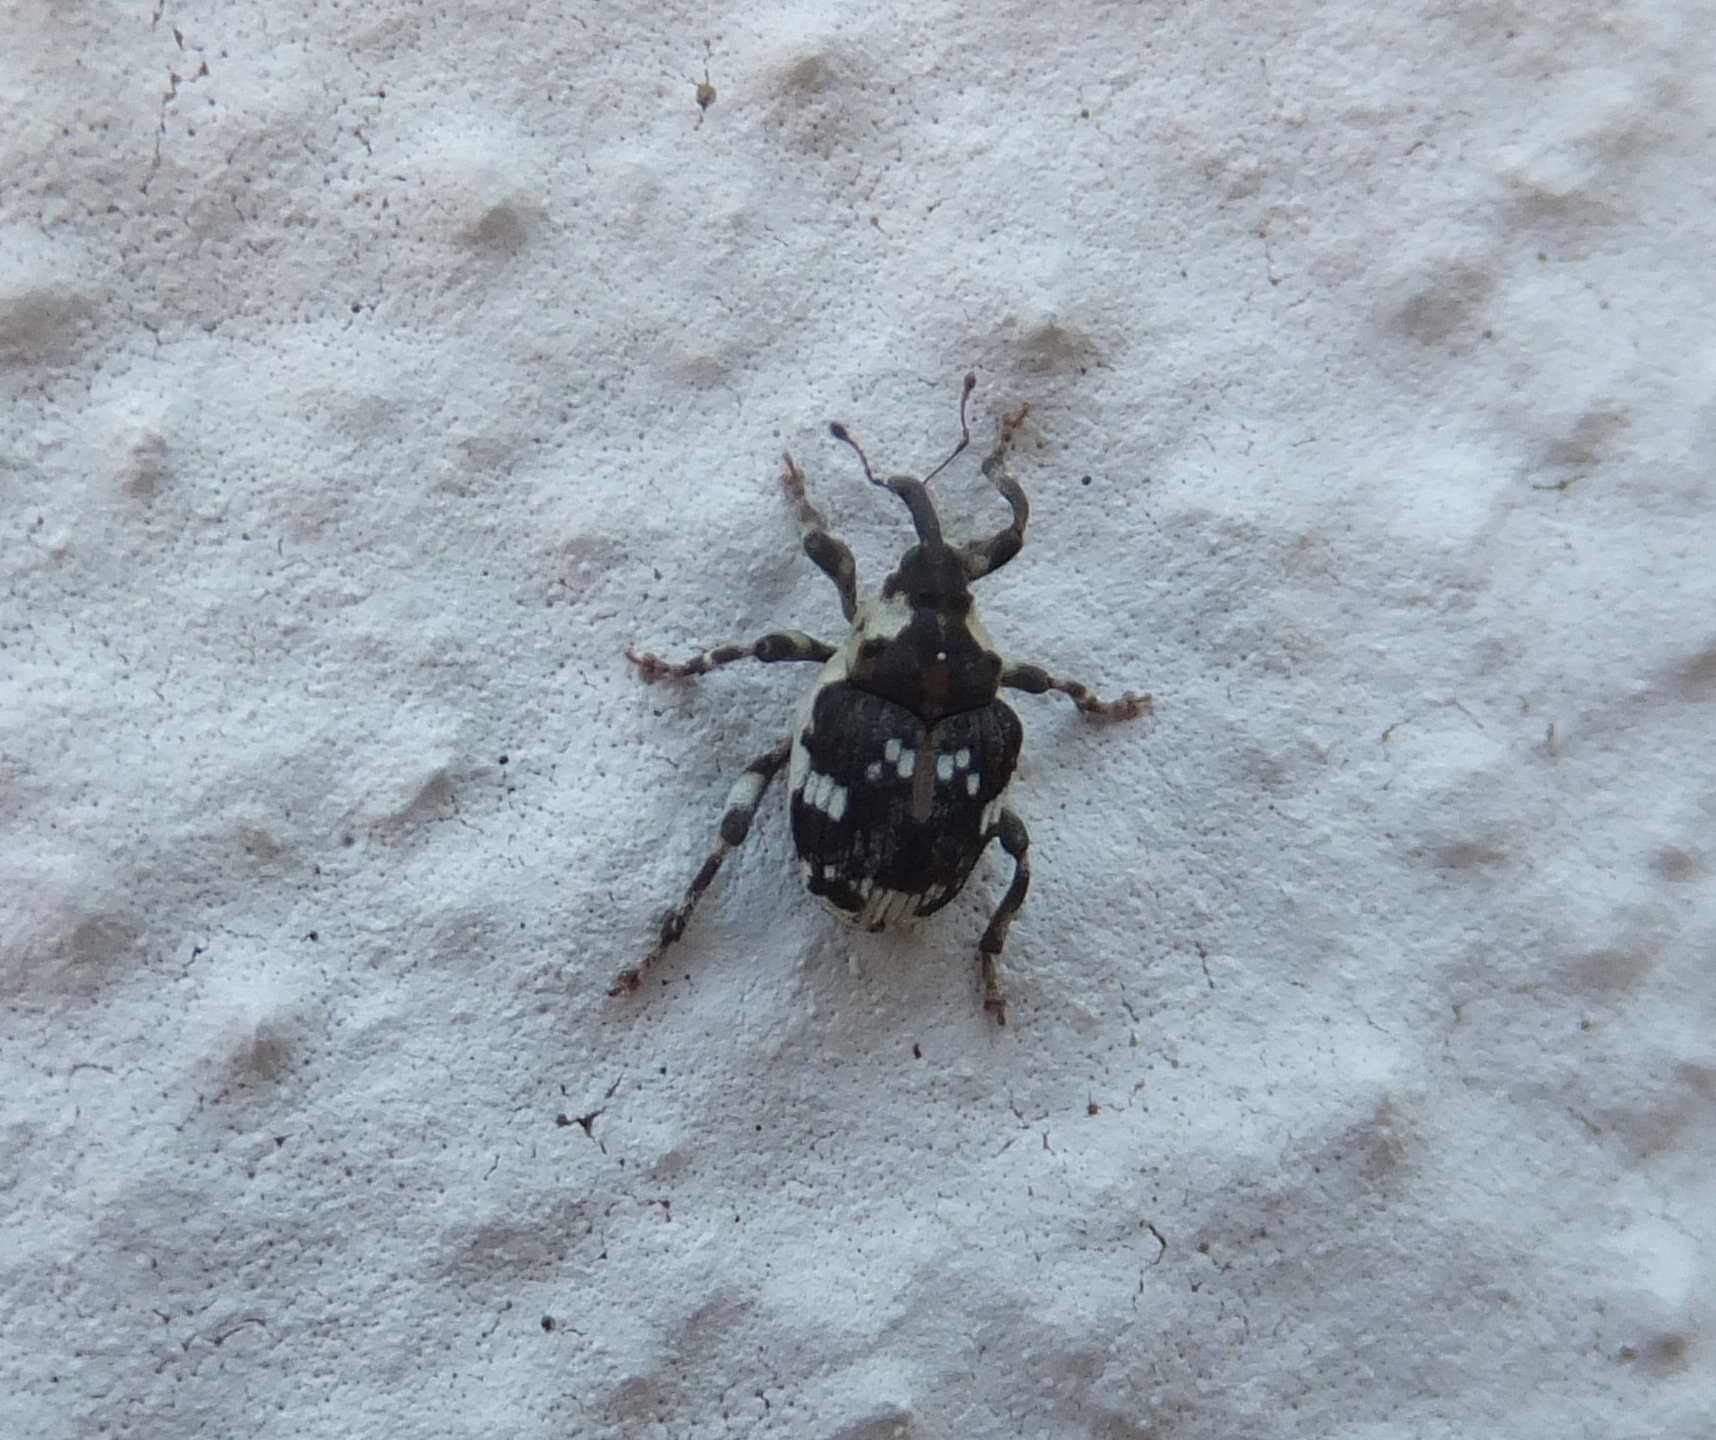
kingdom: Animalia
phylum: Arthropoda
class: Insecta
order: Coleoptera
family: Curculionidae
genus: Hadroplontus
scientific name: Hadroplontus trimaculatus
